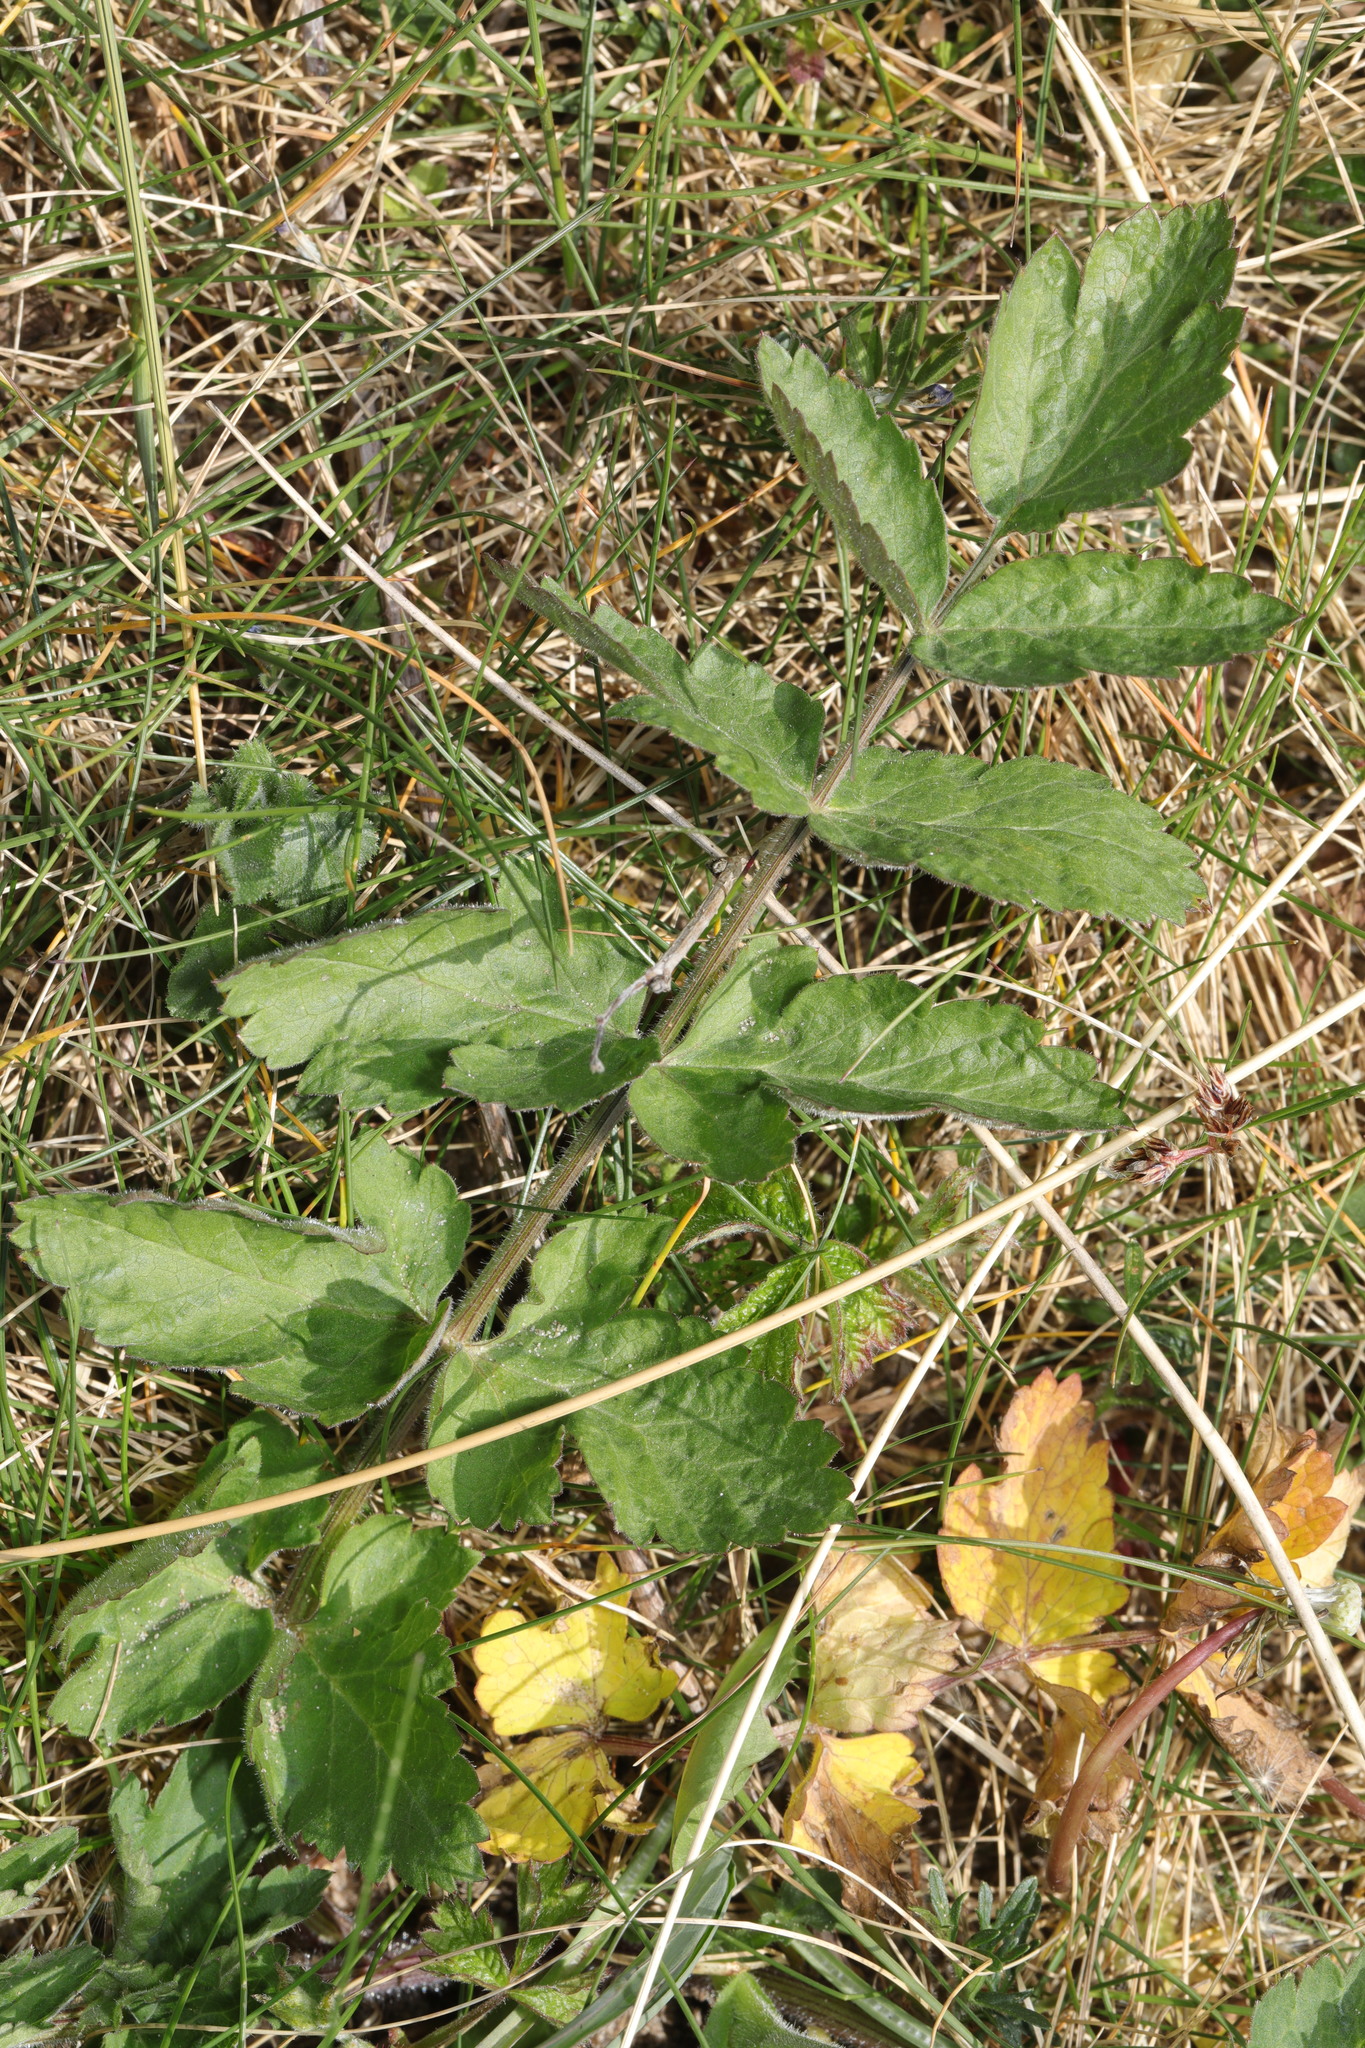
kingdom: Plantae
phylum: Tracheophyta
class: Magnoliopsida
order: Apiales
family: Apiaceae
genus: Pastinaca
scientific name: Pastinaca sativa
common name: Wild parsnip
